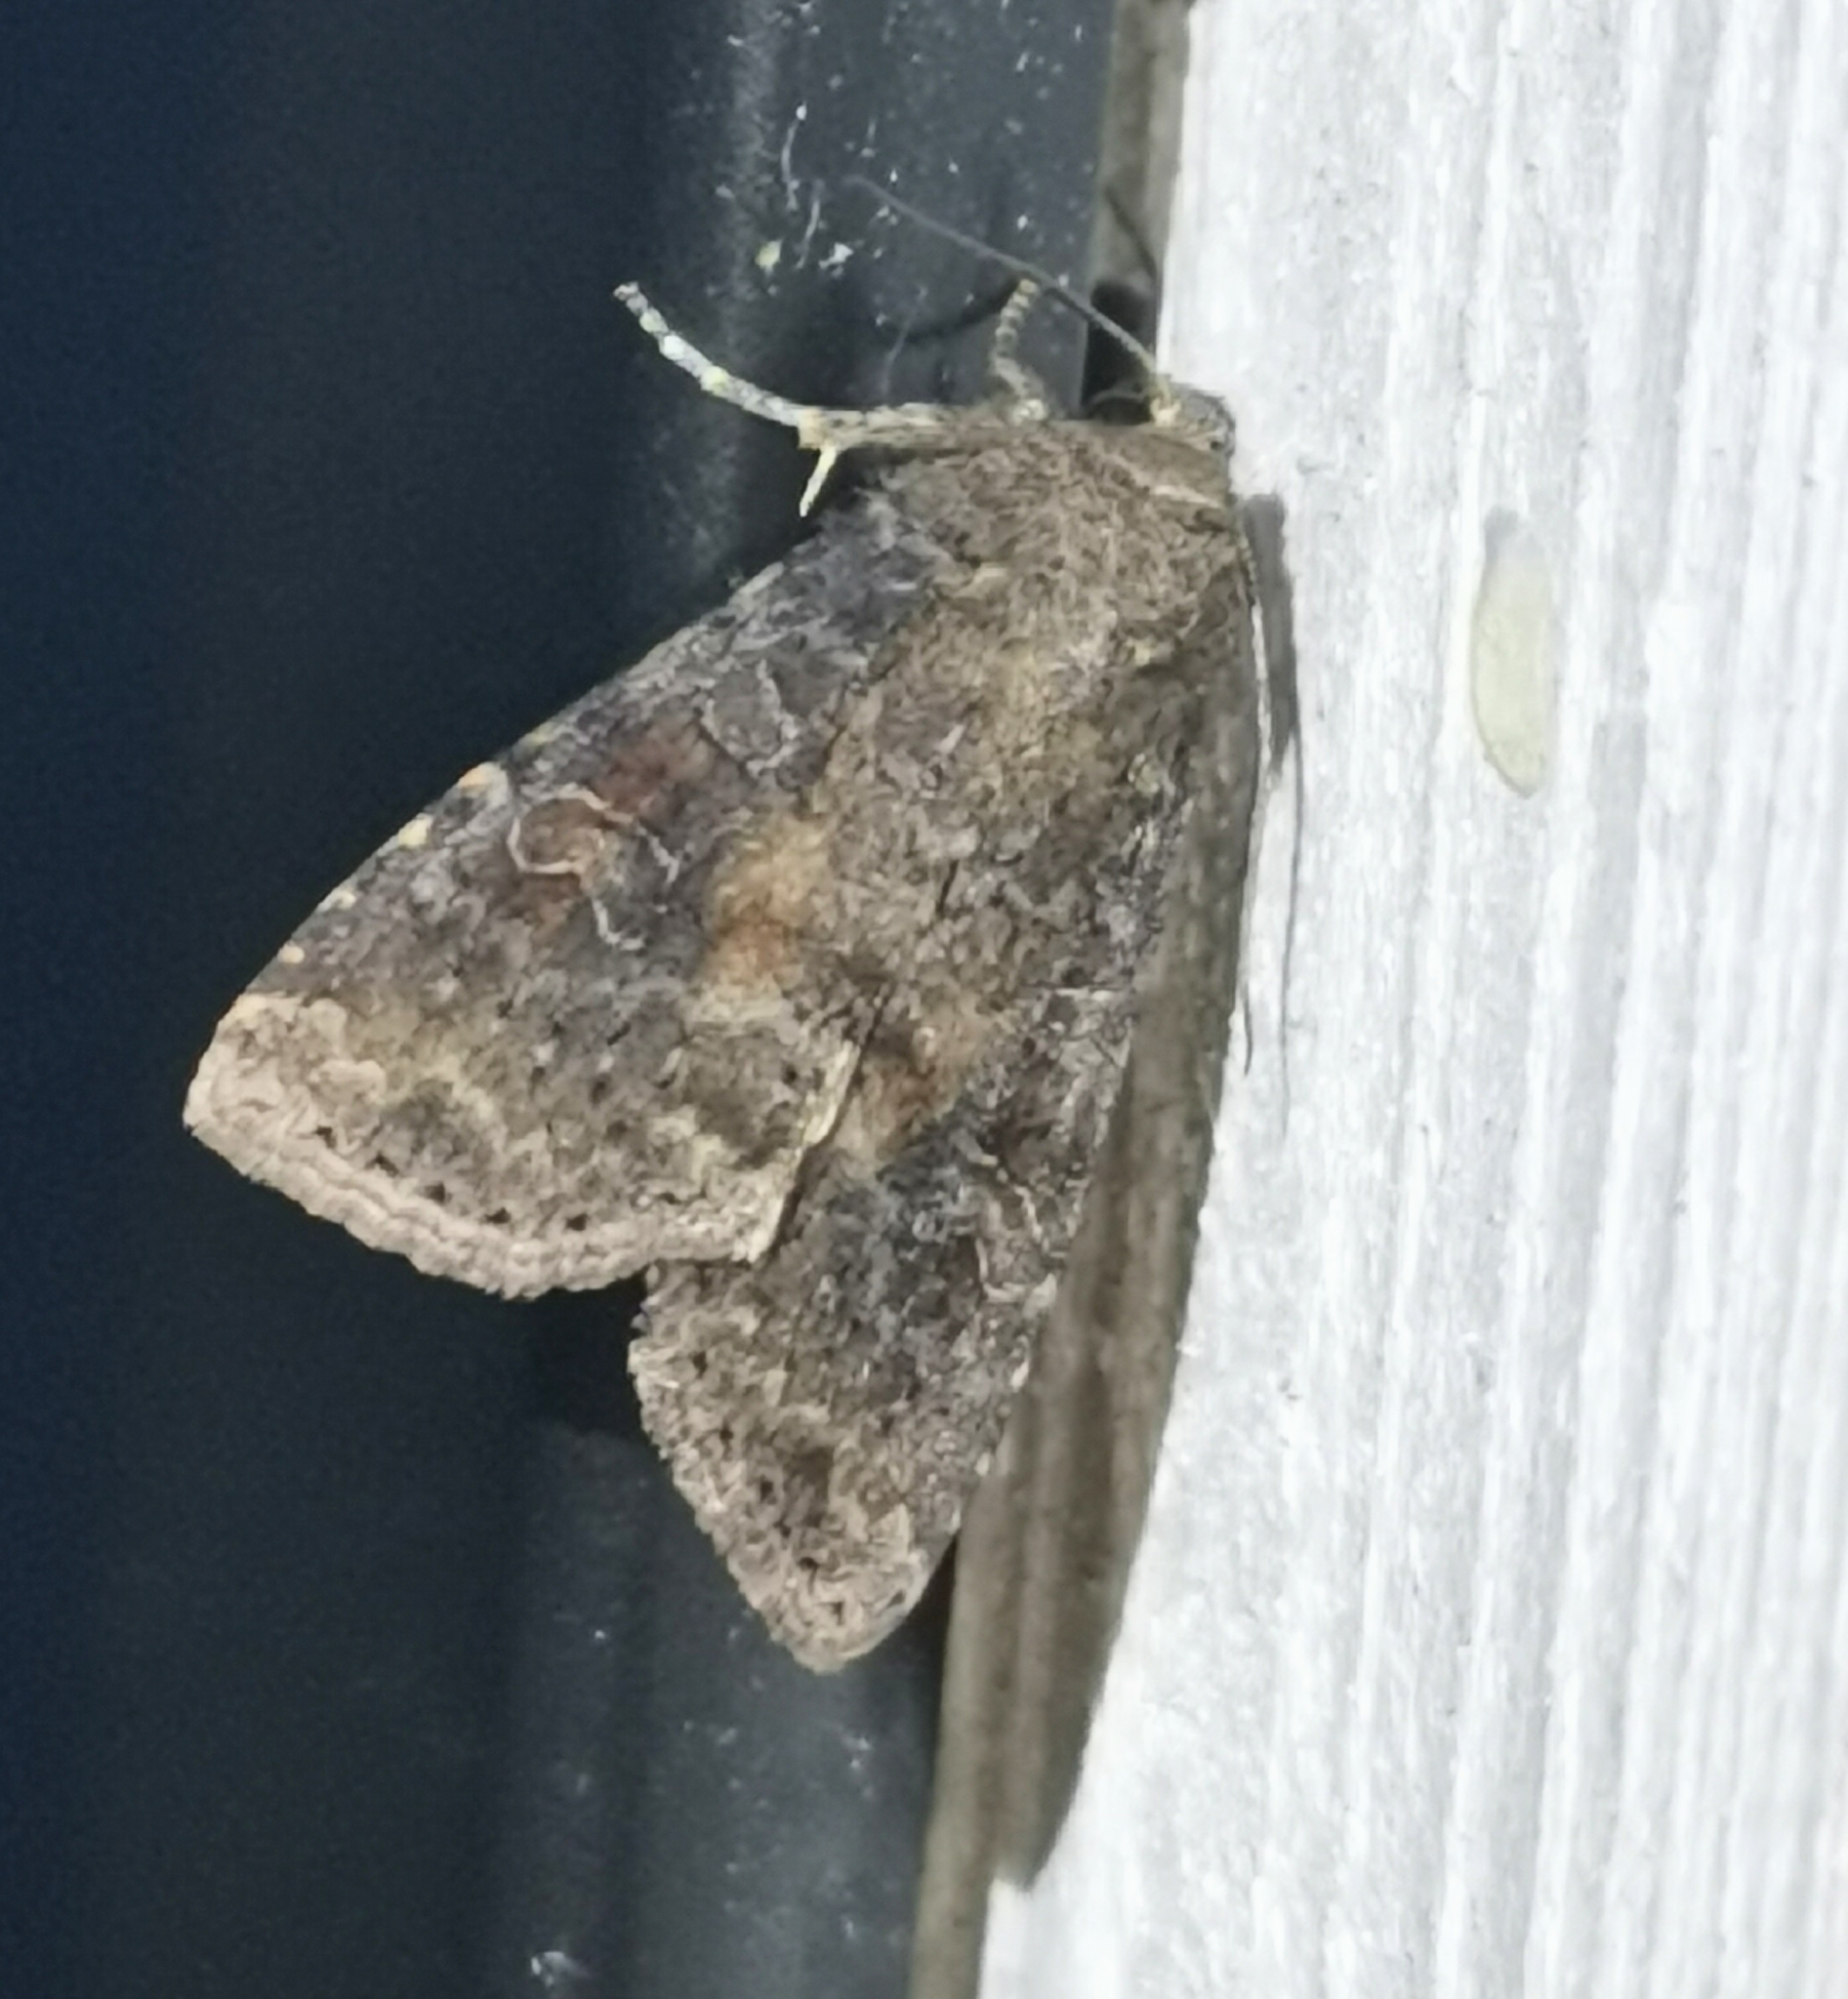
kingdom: Animalia
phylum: Arthropoda
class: Insecta
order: Lepidoptera
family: Noctuidae
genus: Parastichtis
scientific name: Parastichtis suspecta
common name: Suspected
